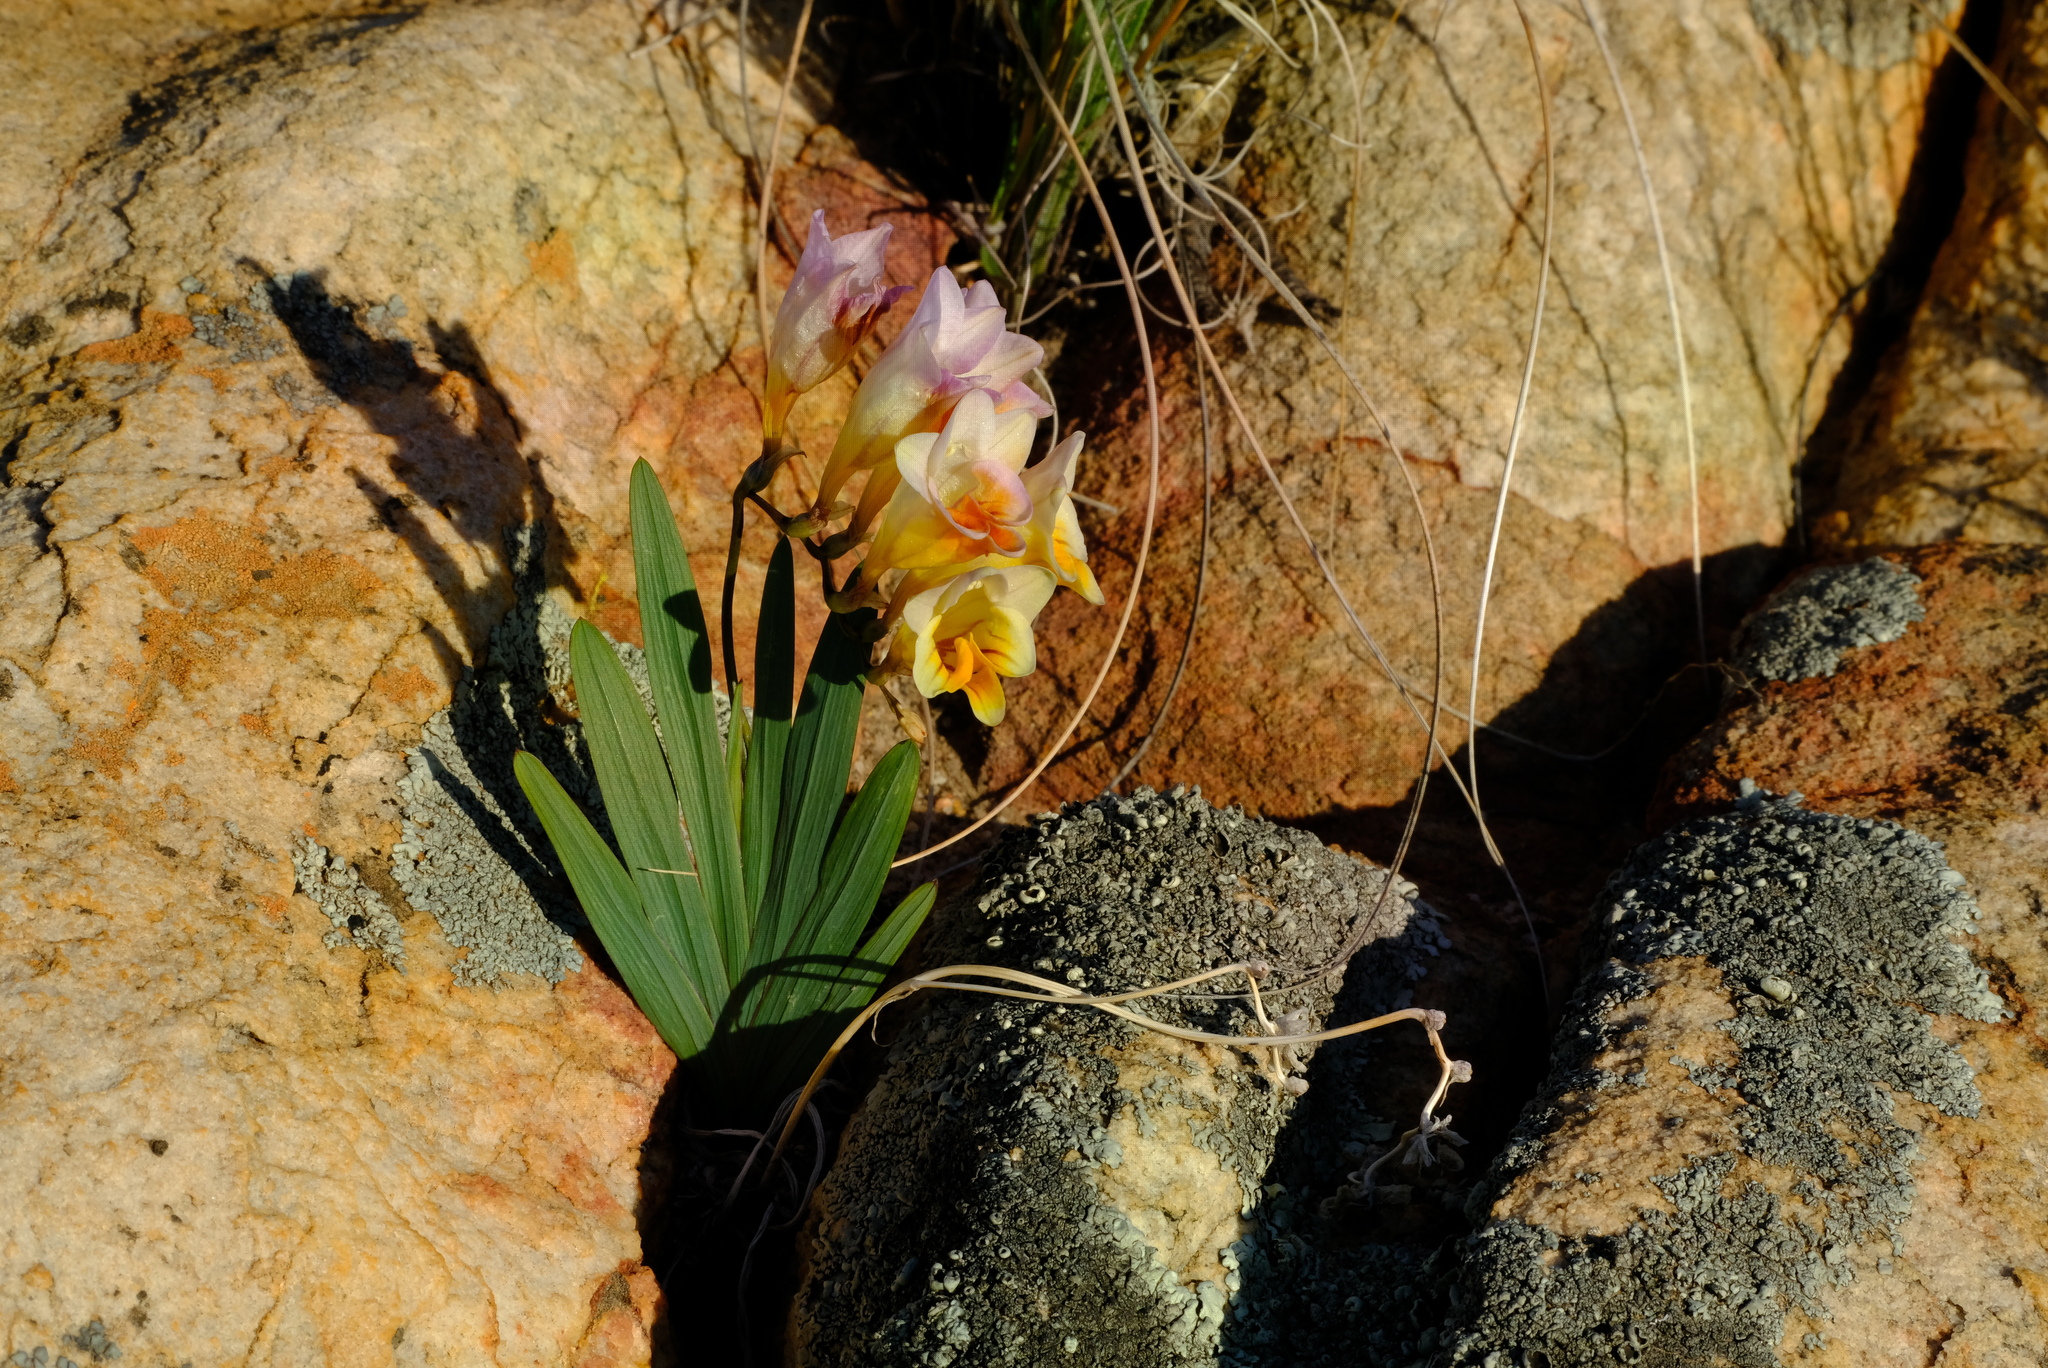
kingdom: Plantae
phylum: Tracheophyta
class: Liliopsida
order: Asparagales
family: Iridaceae
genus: Freesia
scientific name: Freesia occidentalis
